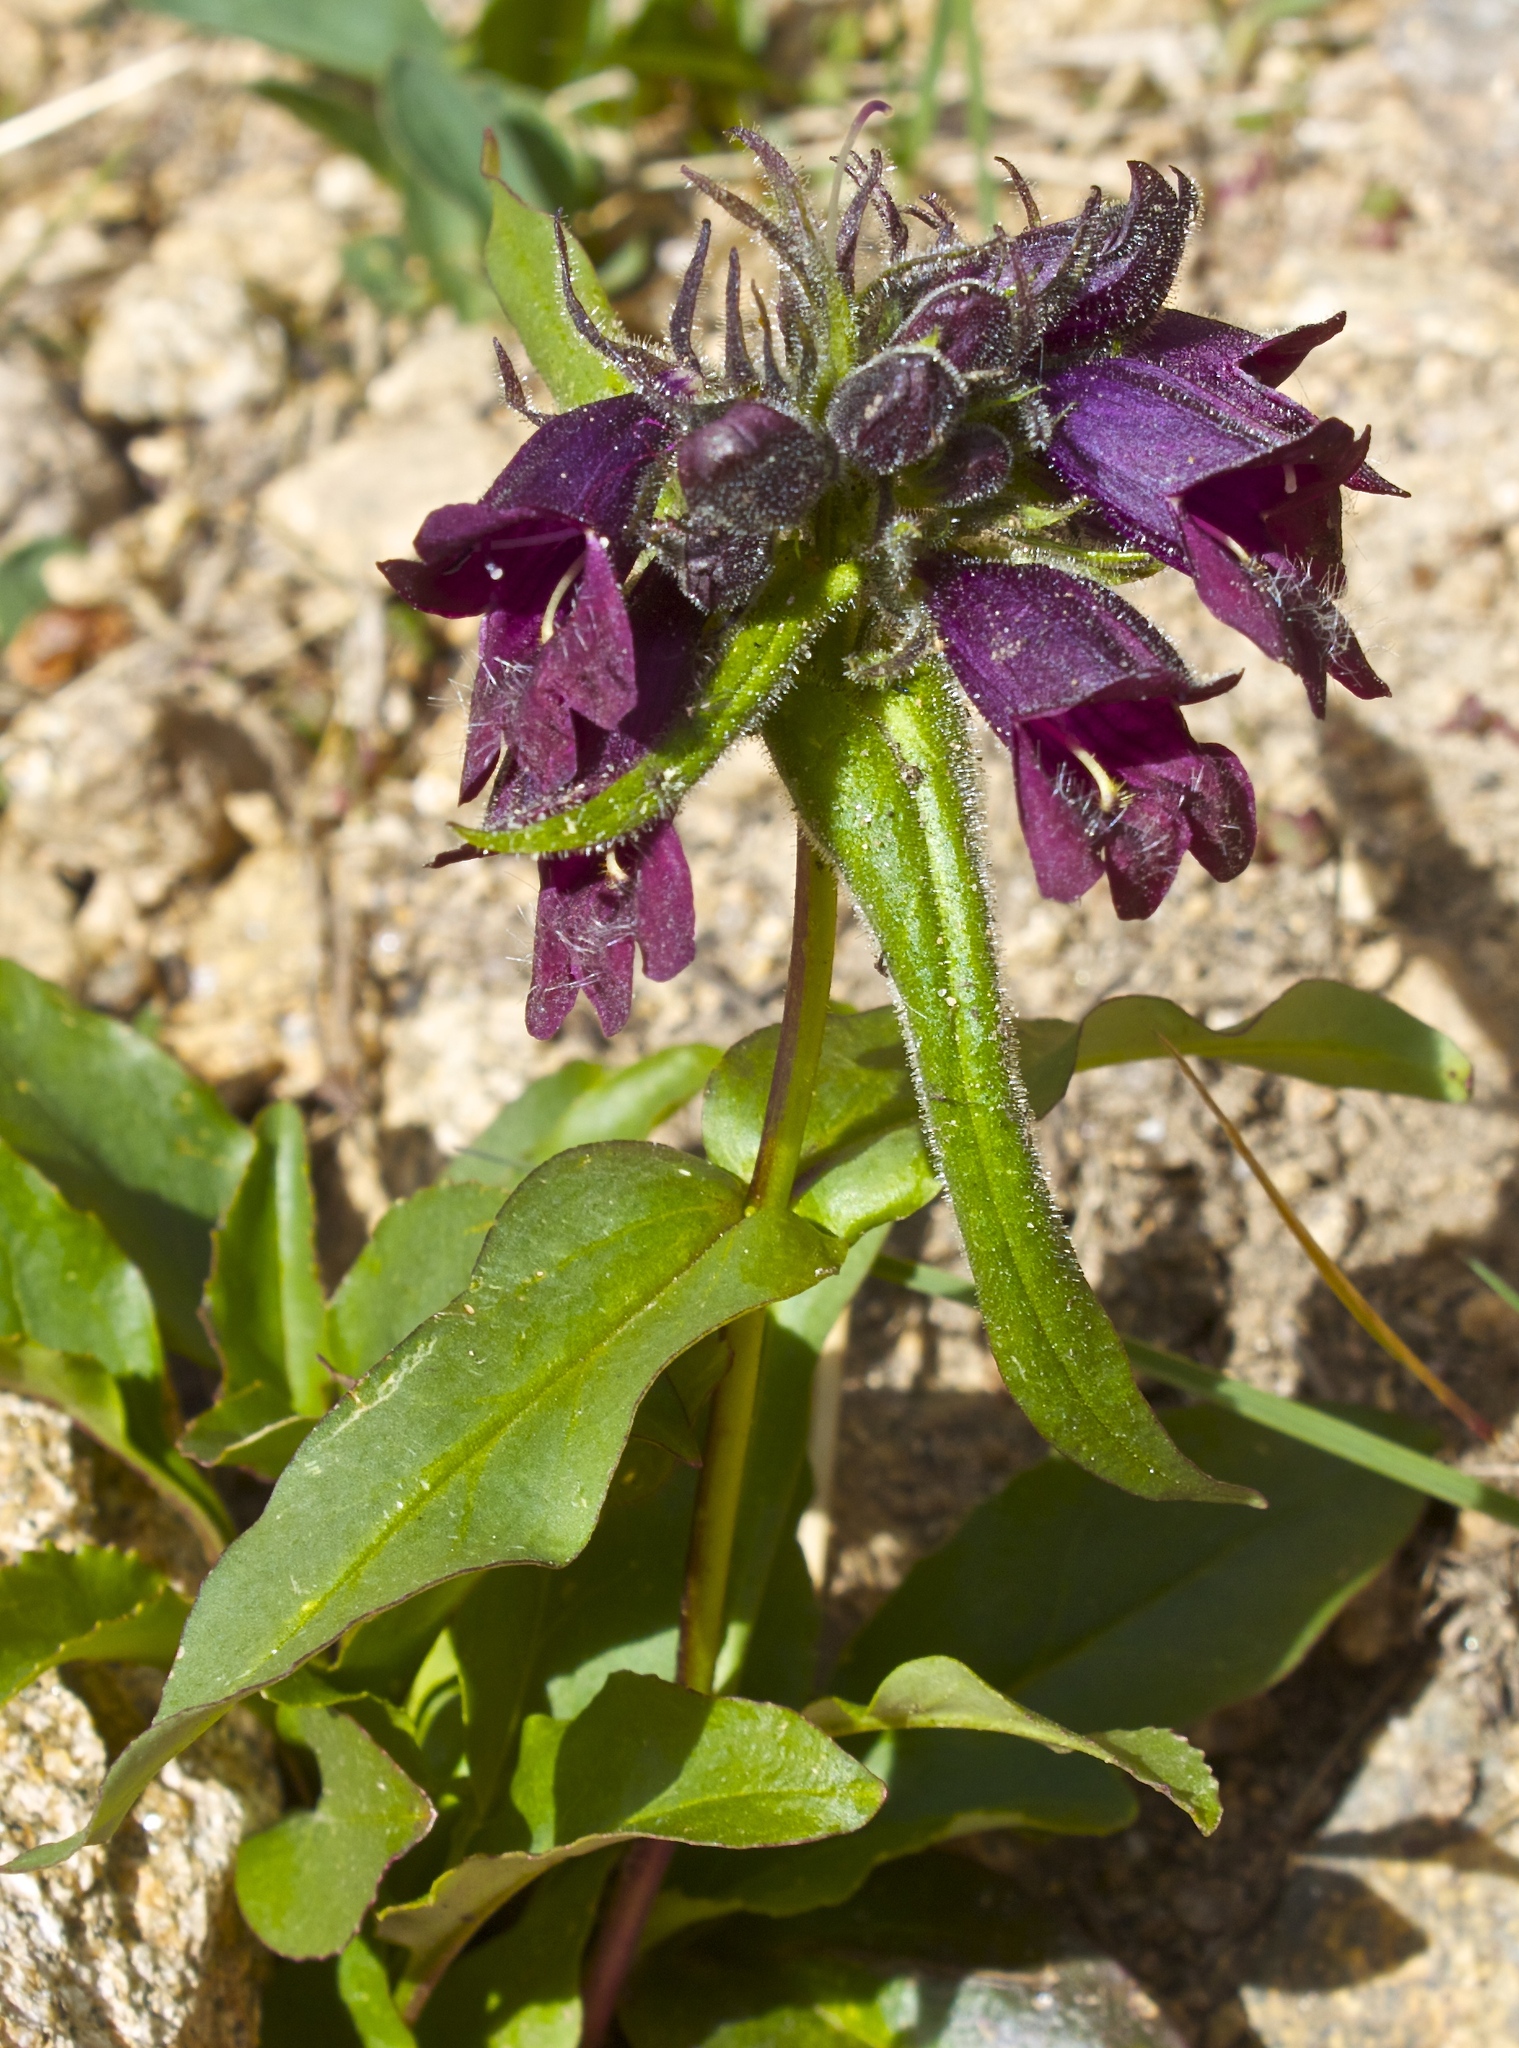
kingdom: Plantae
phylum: Tracheophyta
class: Magnoliopsida
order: Lamiales
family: Plantaginaceae
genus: Penstemon
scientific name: Penstemon whippleanus
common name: Whipple's penstemon
